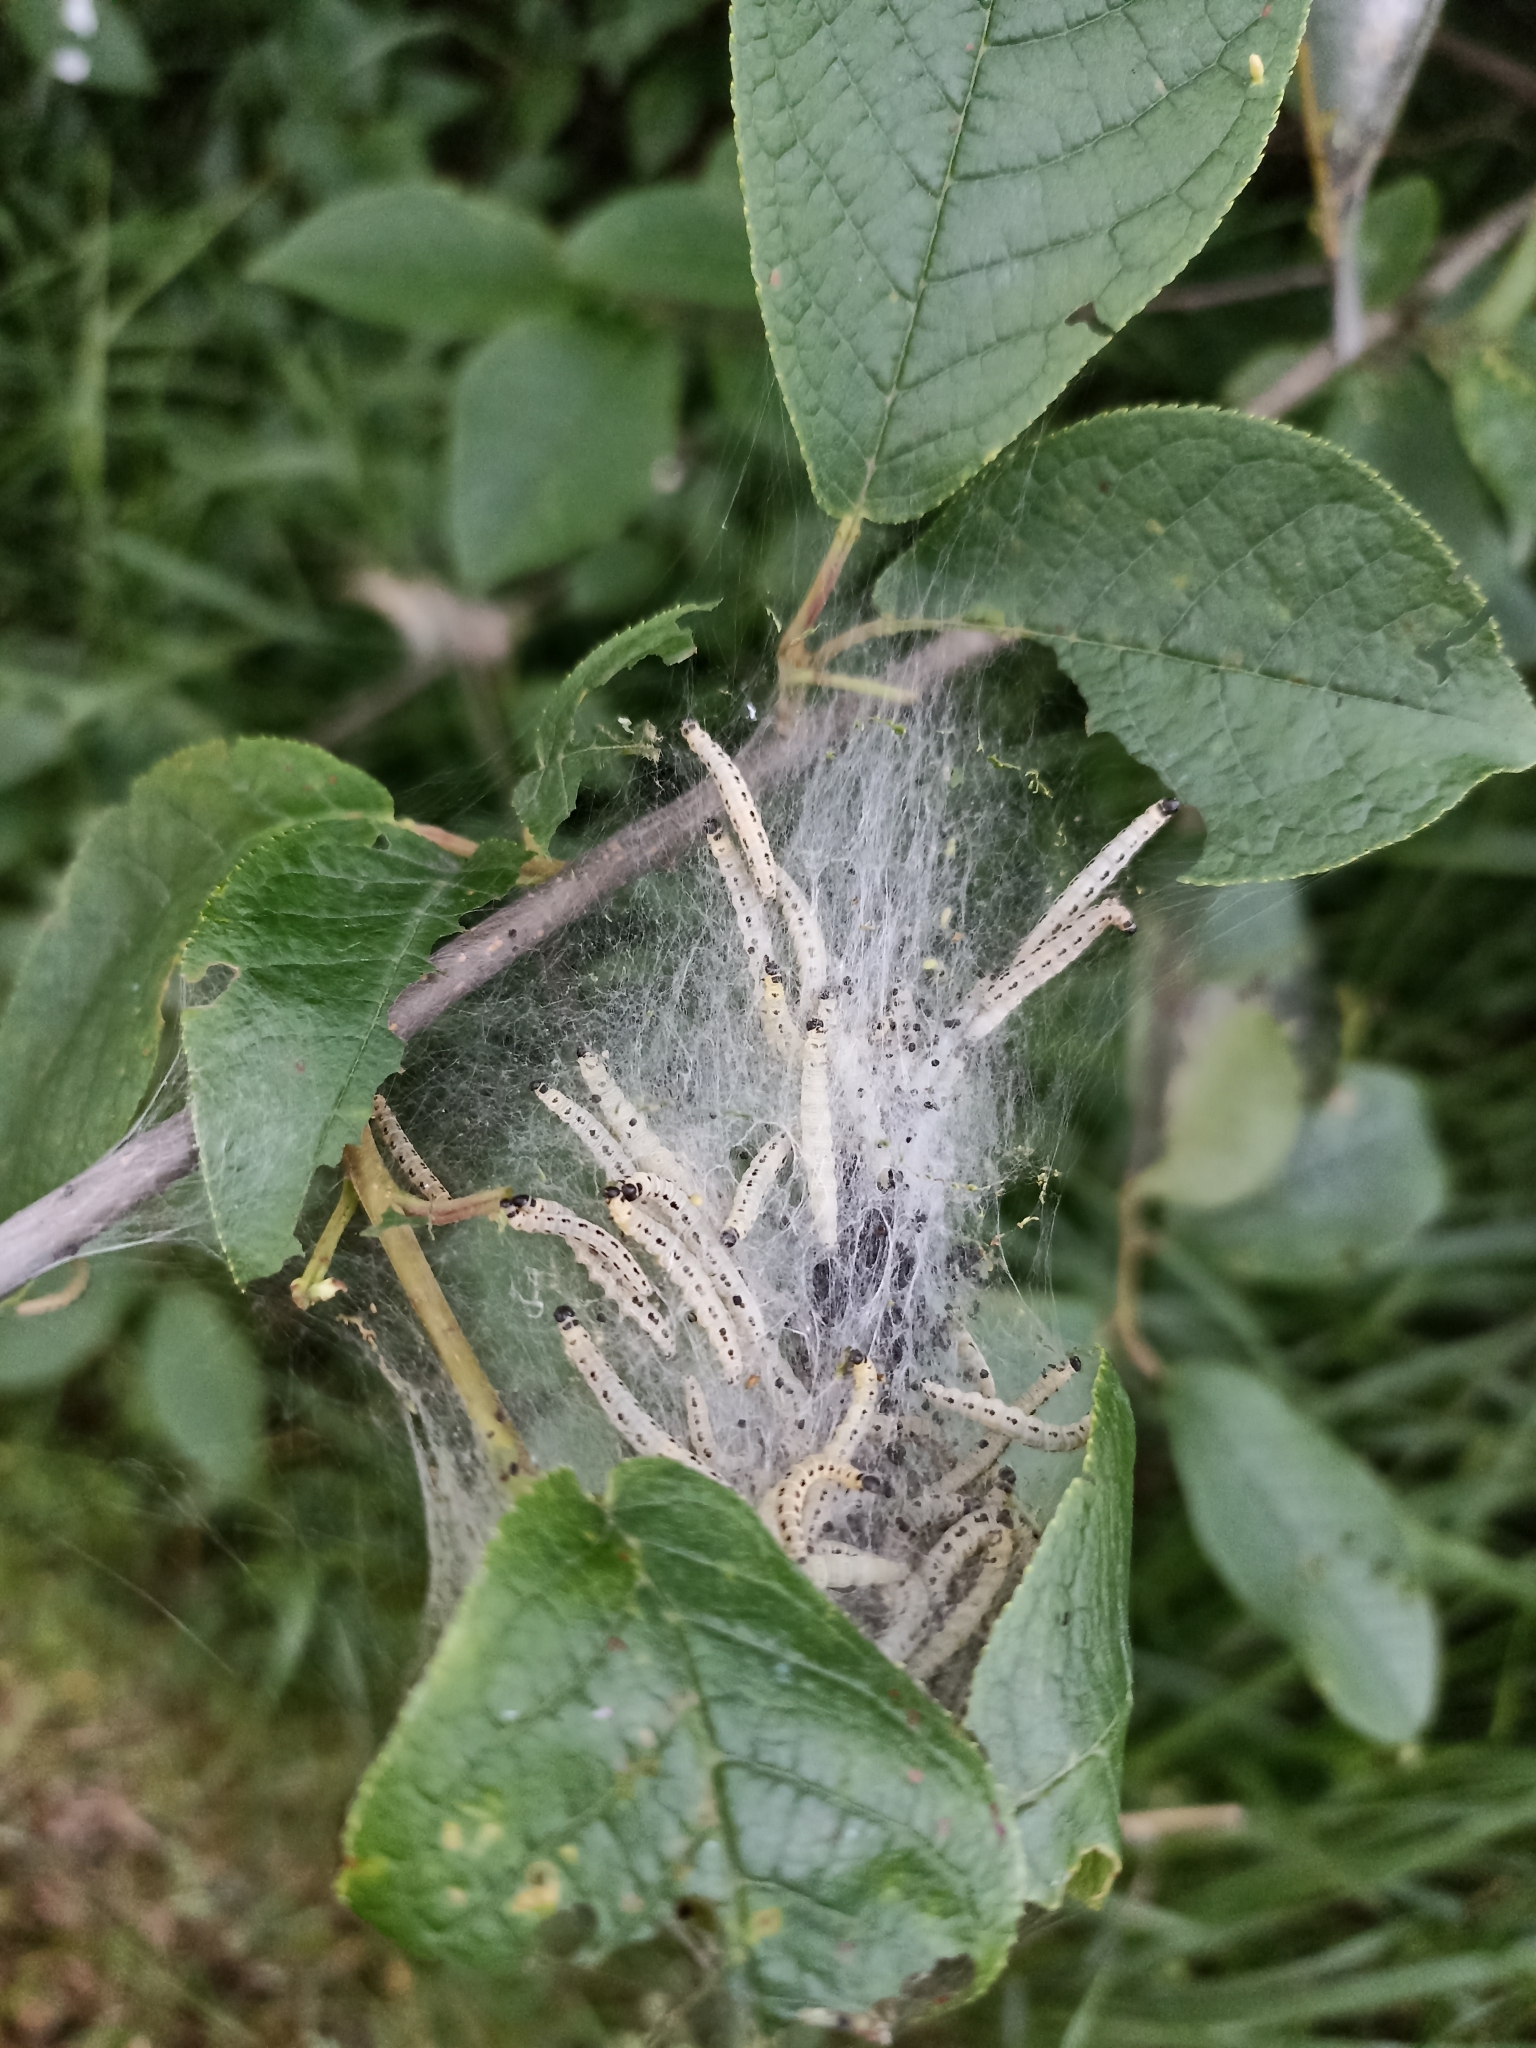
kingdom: Animalia
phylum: Arthropoda
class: Insecta
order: Lepidoptera
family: Yponomeutidae
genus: Yponomeuta
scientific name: Yponomeuta evonymella
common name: Bird-cherry ermine
